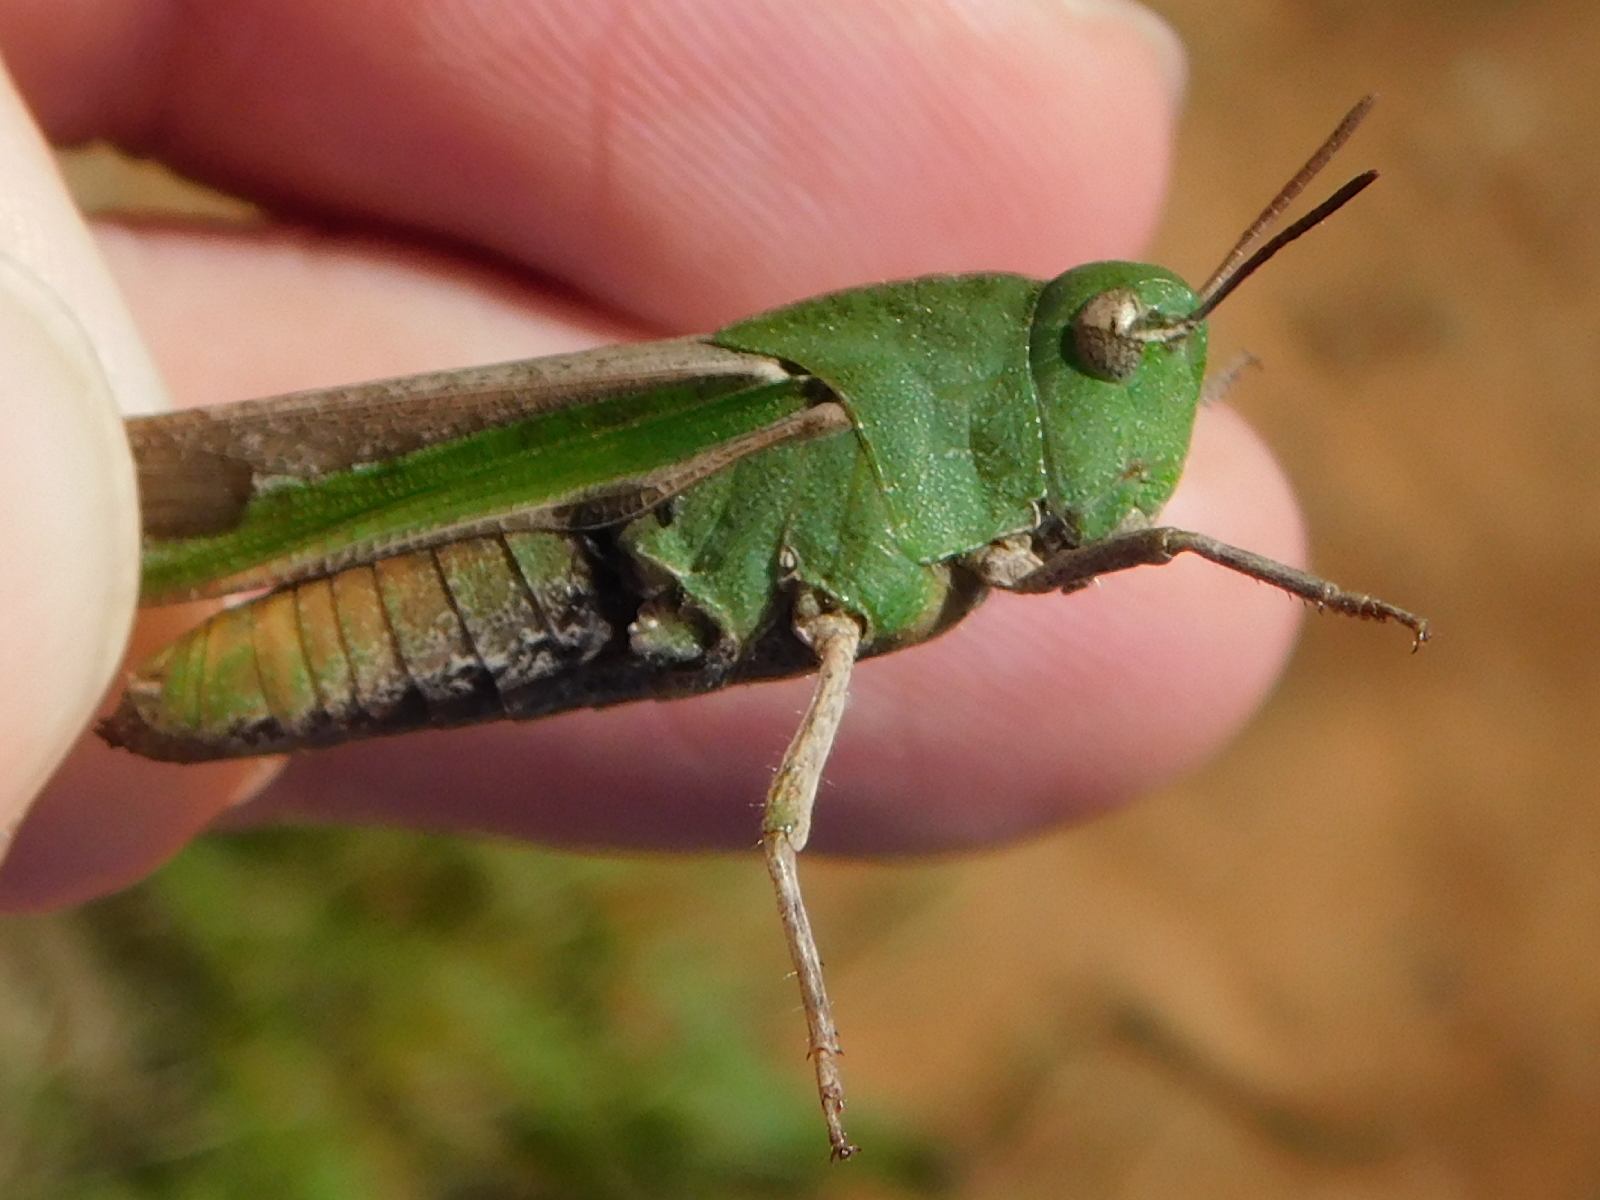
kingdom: Animalia
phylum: Arthropoda
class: Insecta
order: Orthoptera
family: Acrididae
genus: Chortophaga
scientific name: Chortophaga viridifasciata
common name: Green-striped grasshopper
